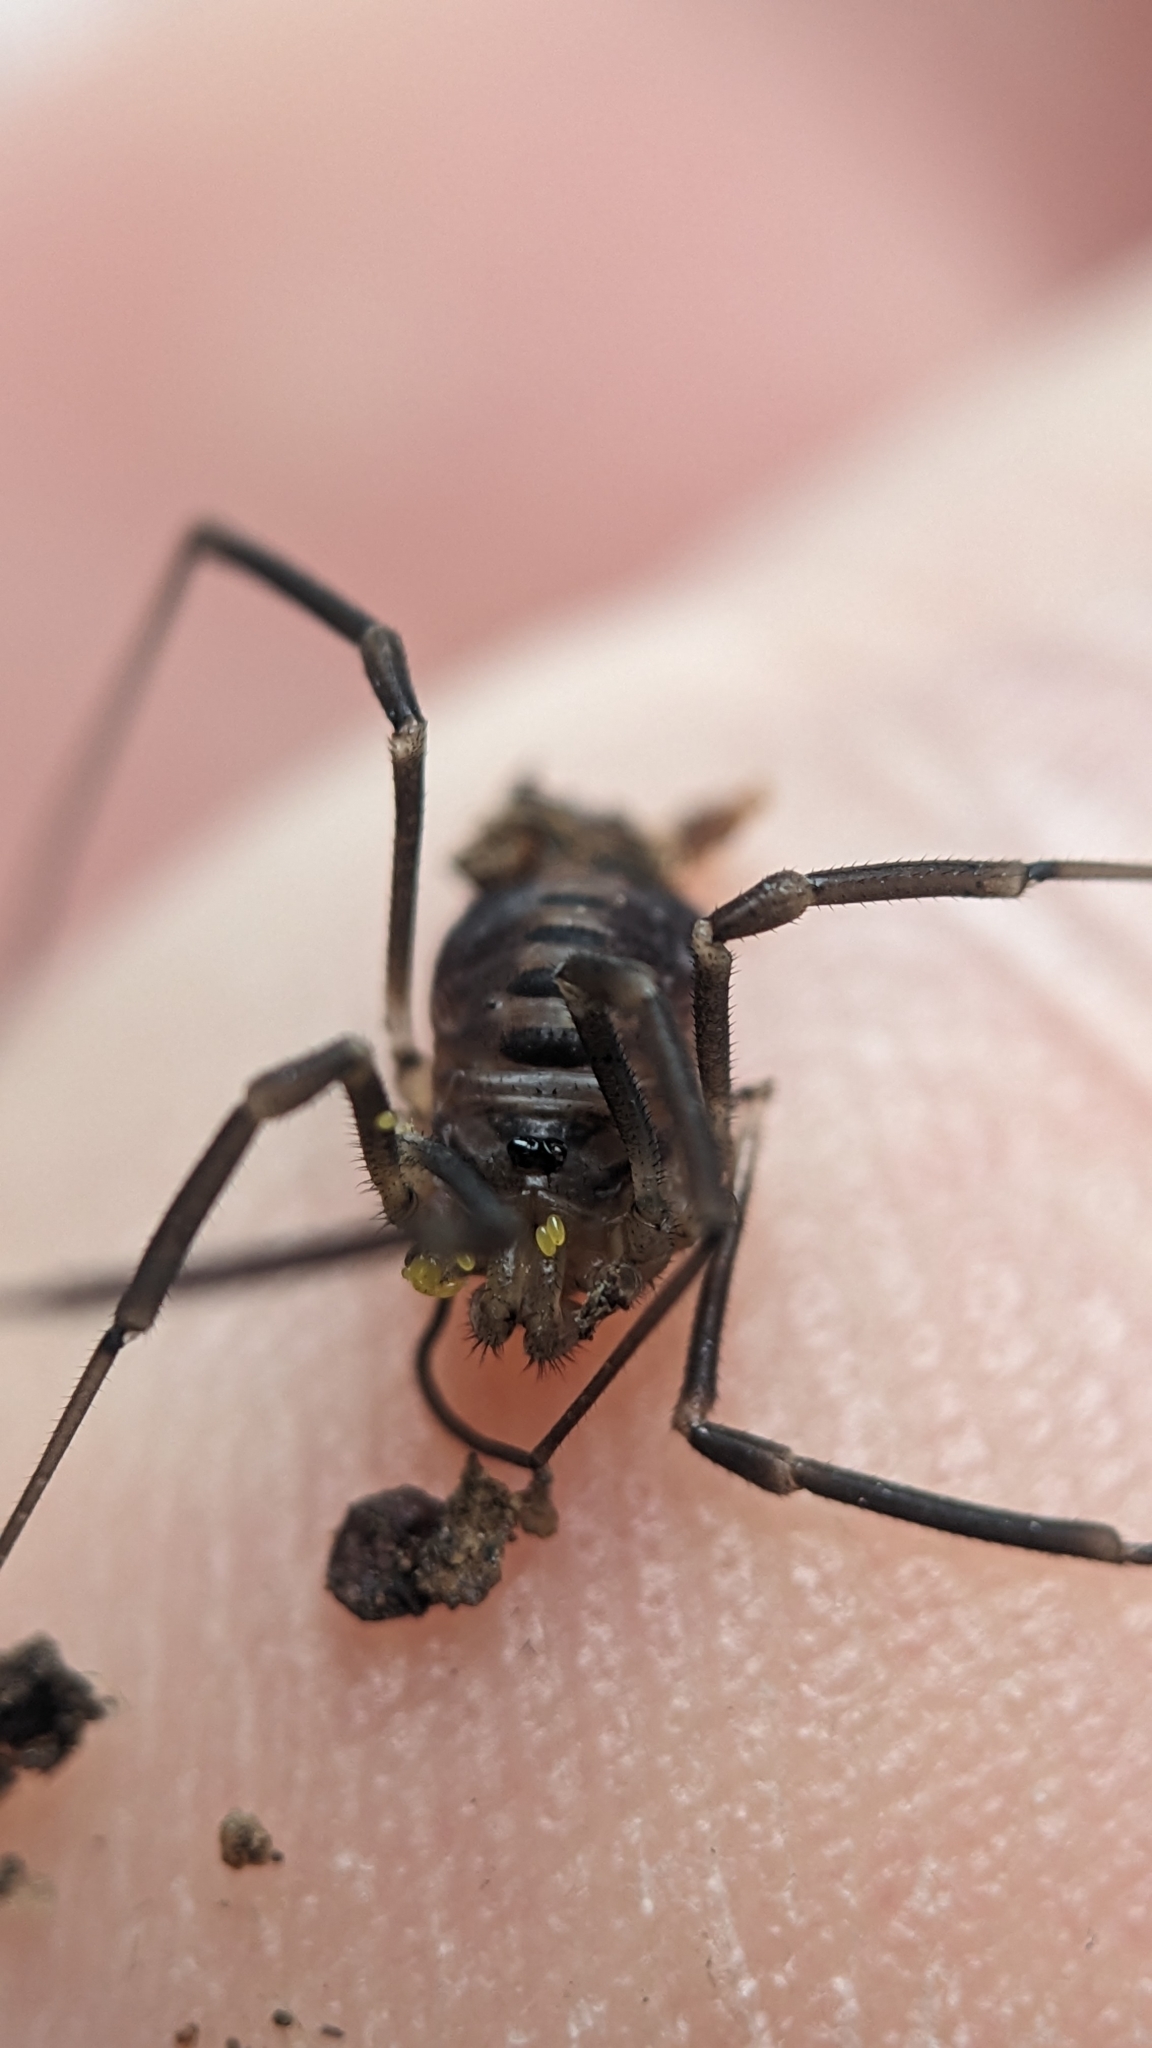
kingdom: Animalia
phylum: Arthropoda
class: Arachnida
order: Opiliones
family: Sabaconidae
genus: Sabacon
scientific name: Sabacon viscayanus
